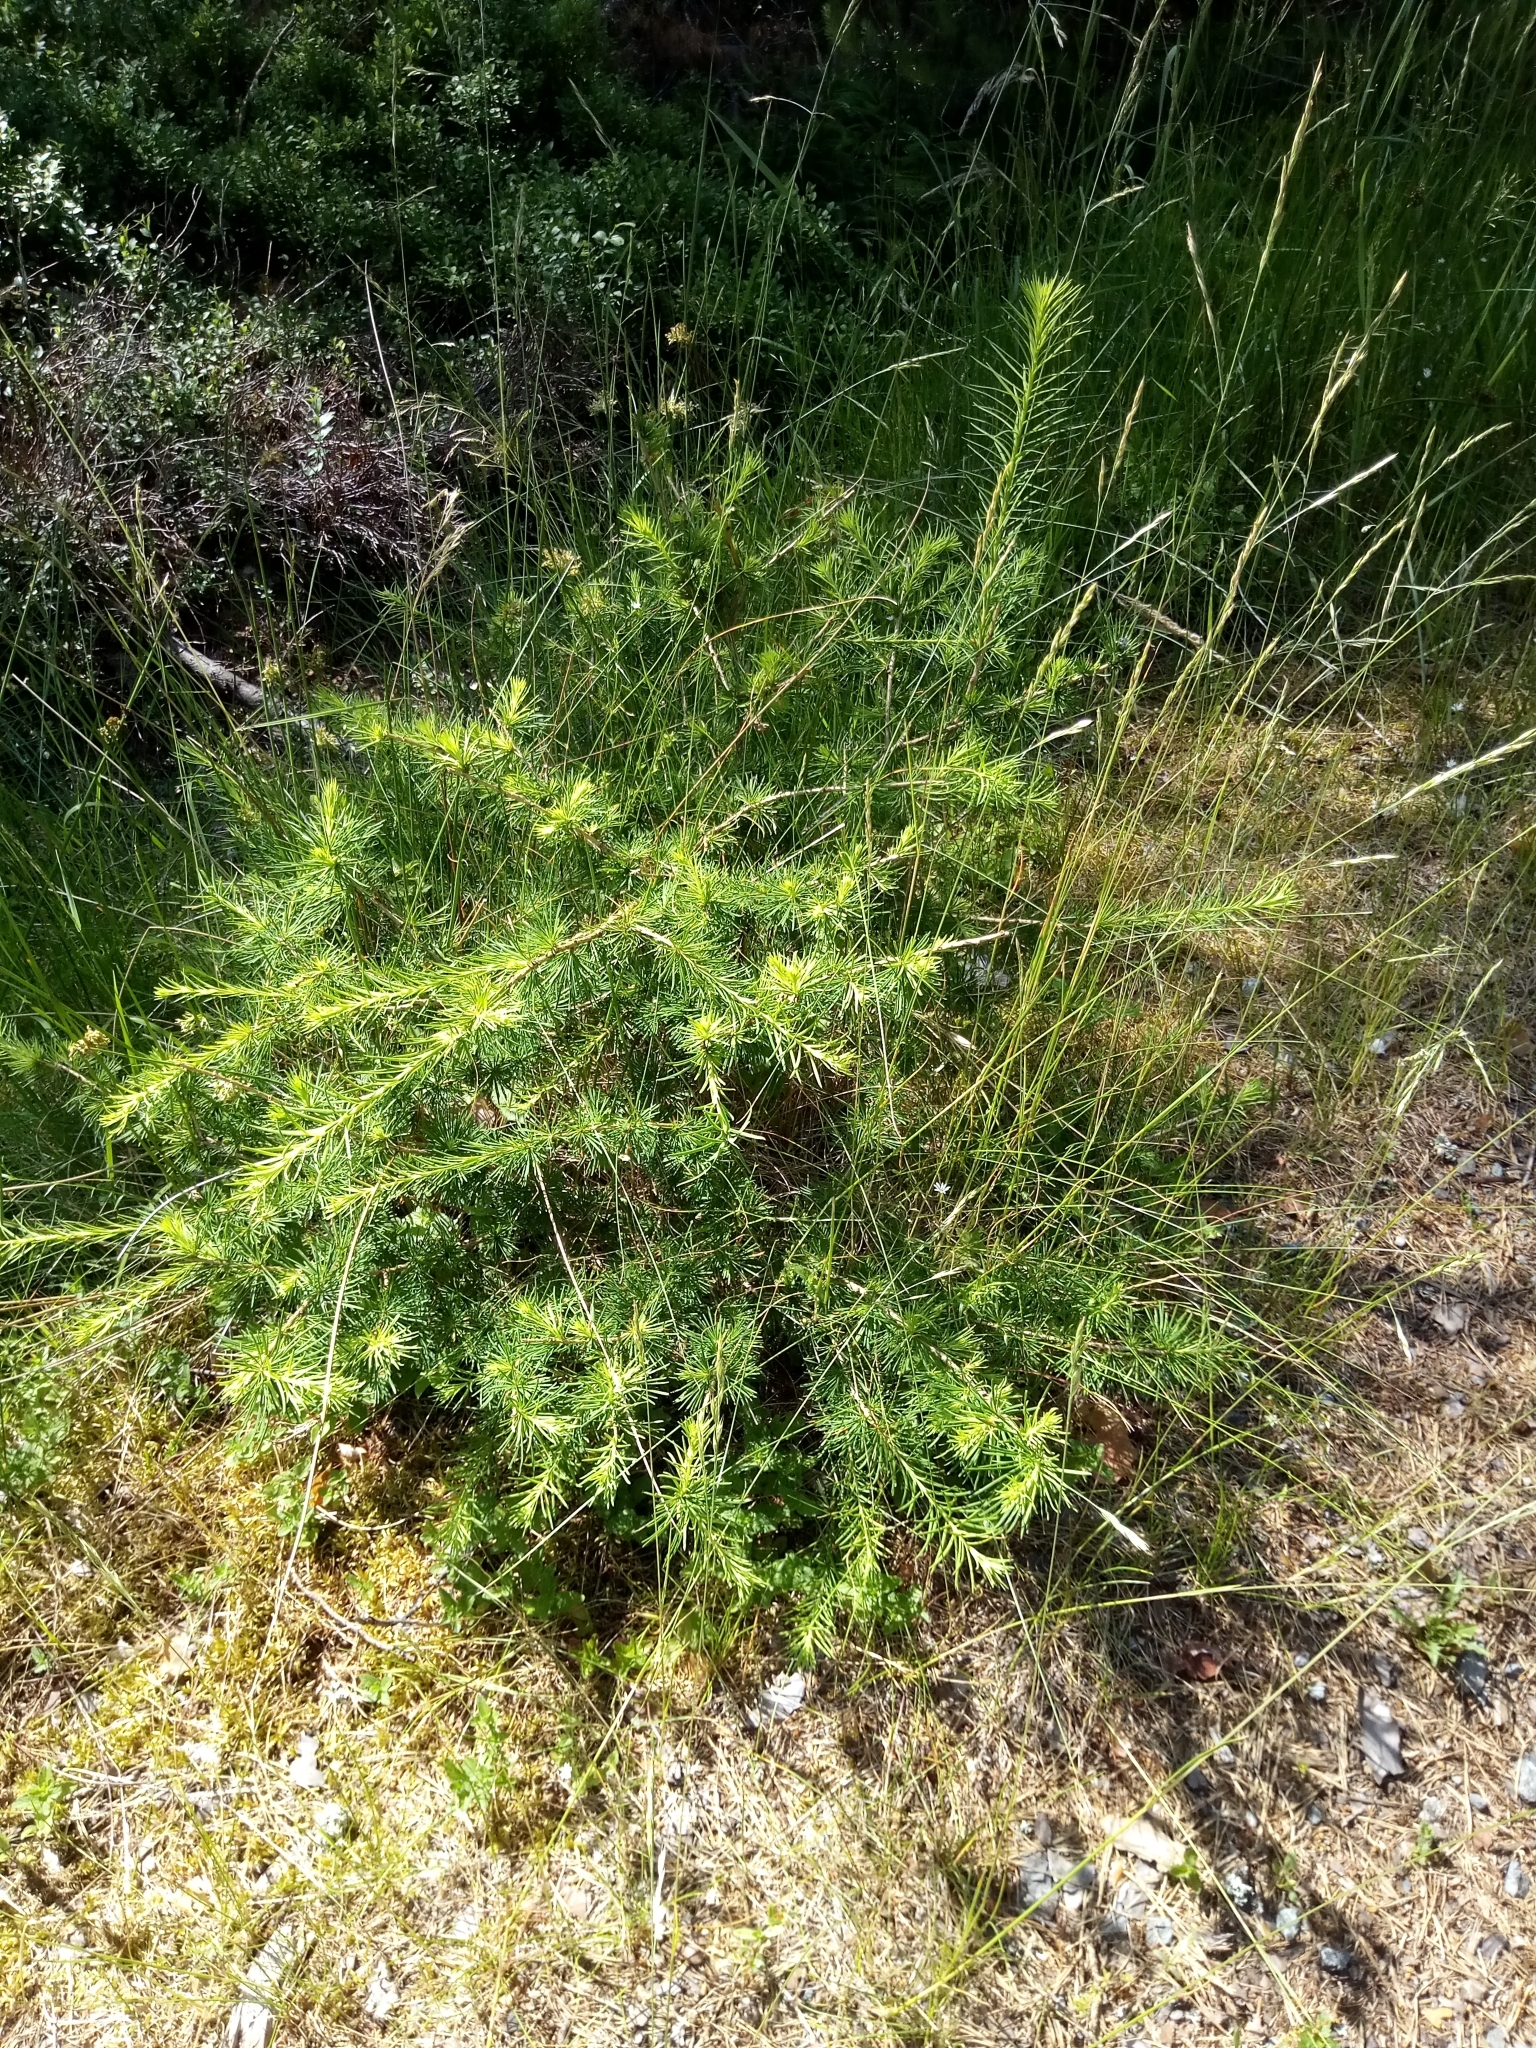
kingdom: Plantae
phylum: Tracheophyta
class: Pinopsida
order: Pinales
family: Pinaceae
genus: Larix
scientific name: Larix decidua
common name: European larch
